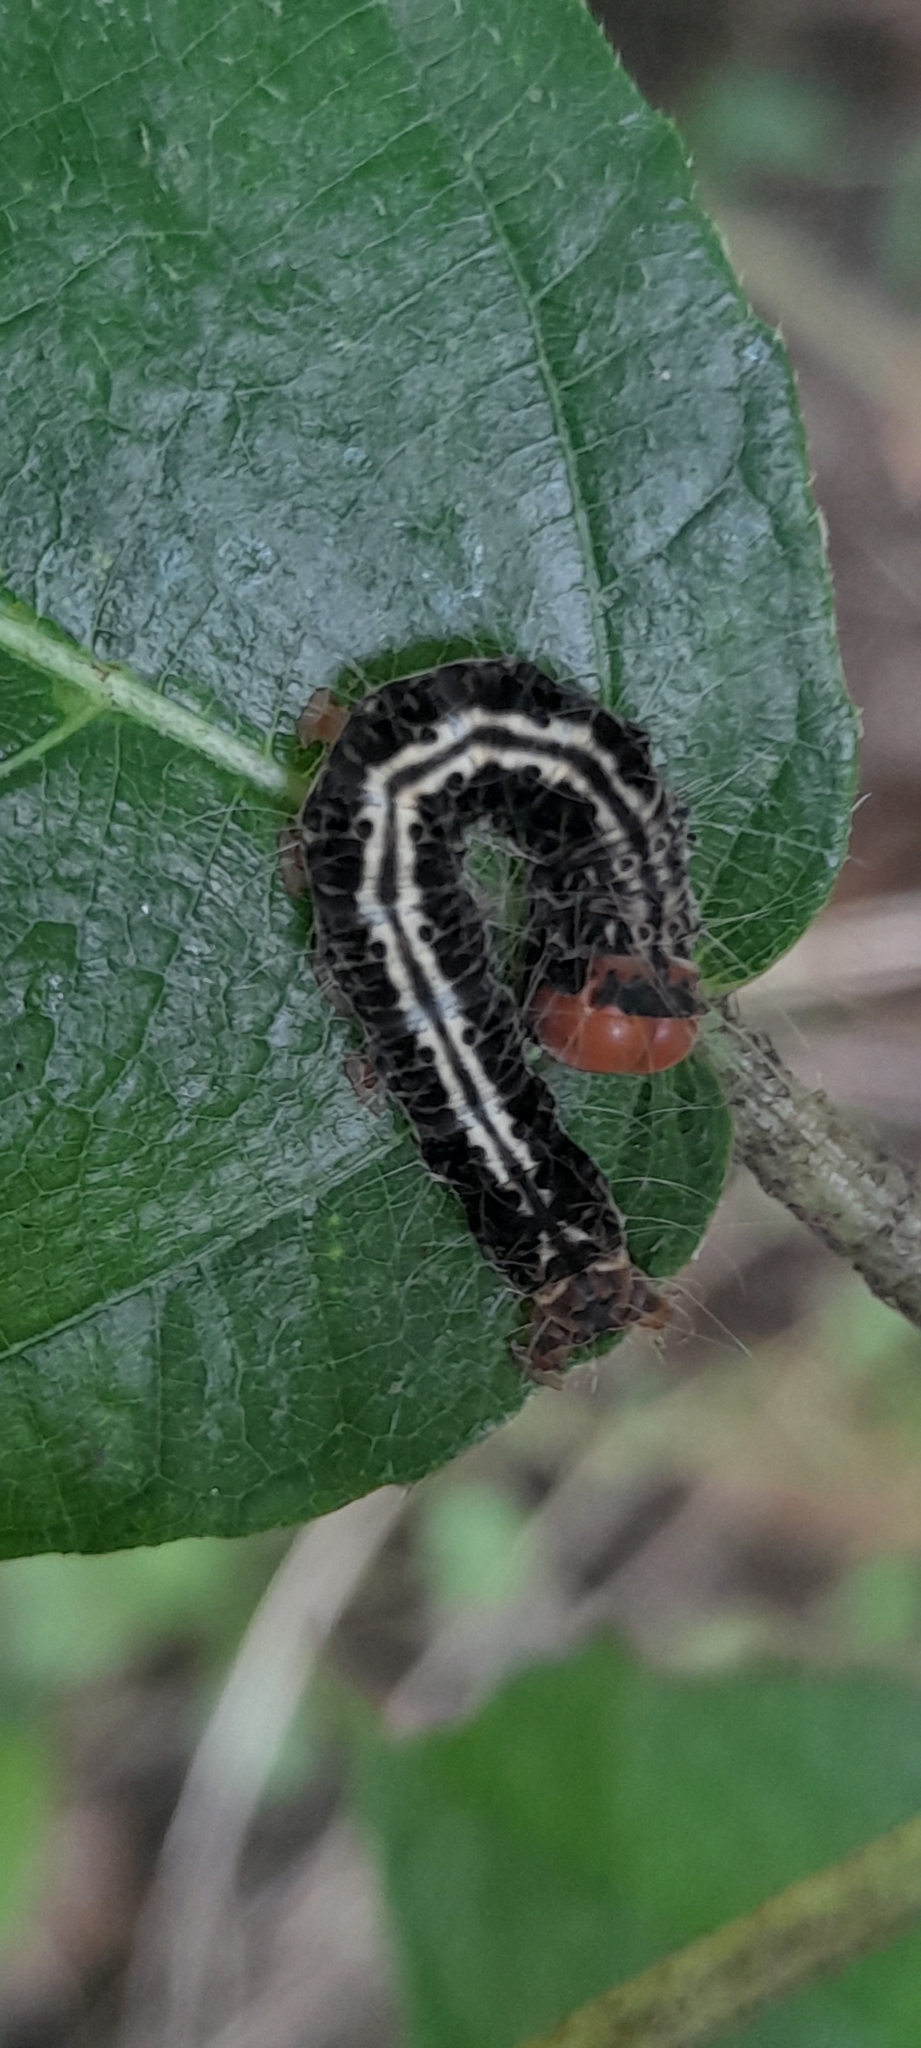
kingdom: Animalia
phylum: Arthropoda
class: Insecta
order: Lepidoptera
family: Erebidae
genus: Asota
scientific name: Asota caricae
